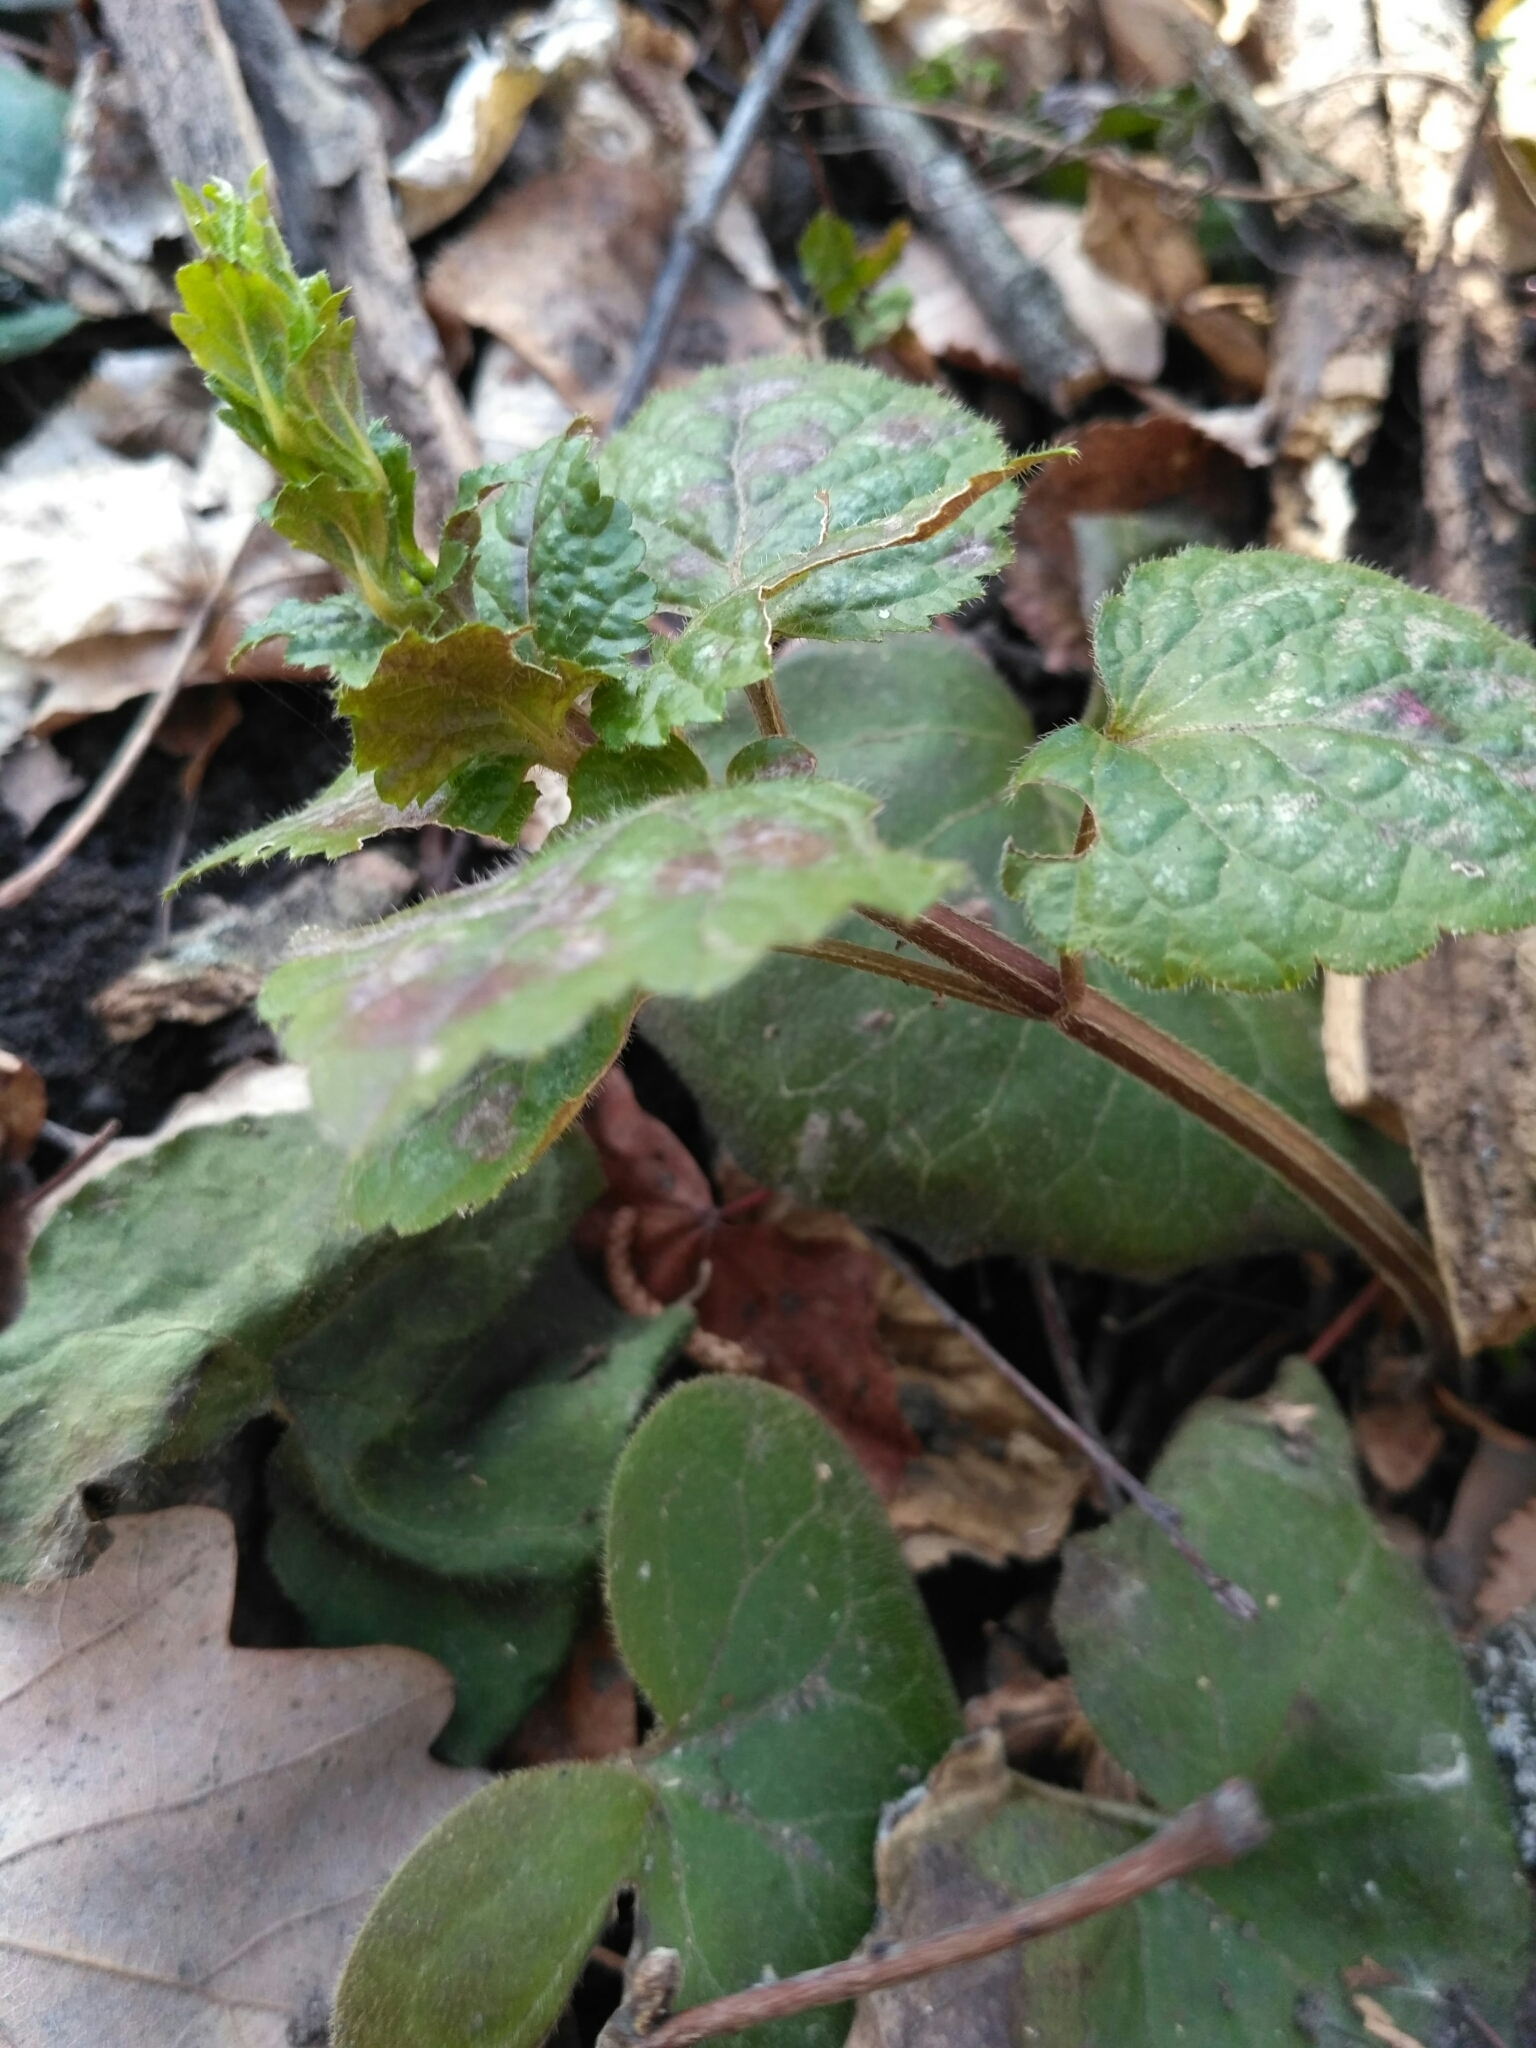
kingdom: Plantae
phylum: Tracheophyta
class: Magnoliopsida
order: Lamiales
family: Lamiaceae
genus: Lamium
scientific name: Lamium galeobdolon
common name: Yellow archangel
